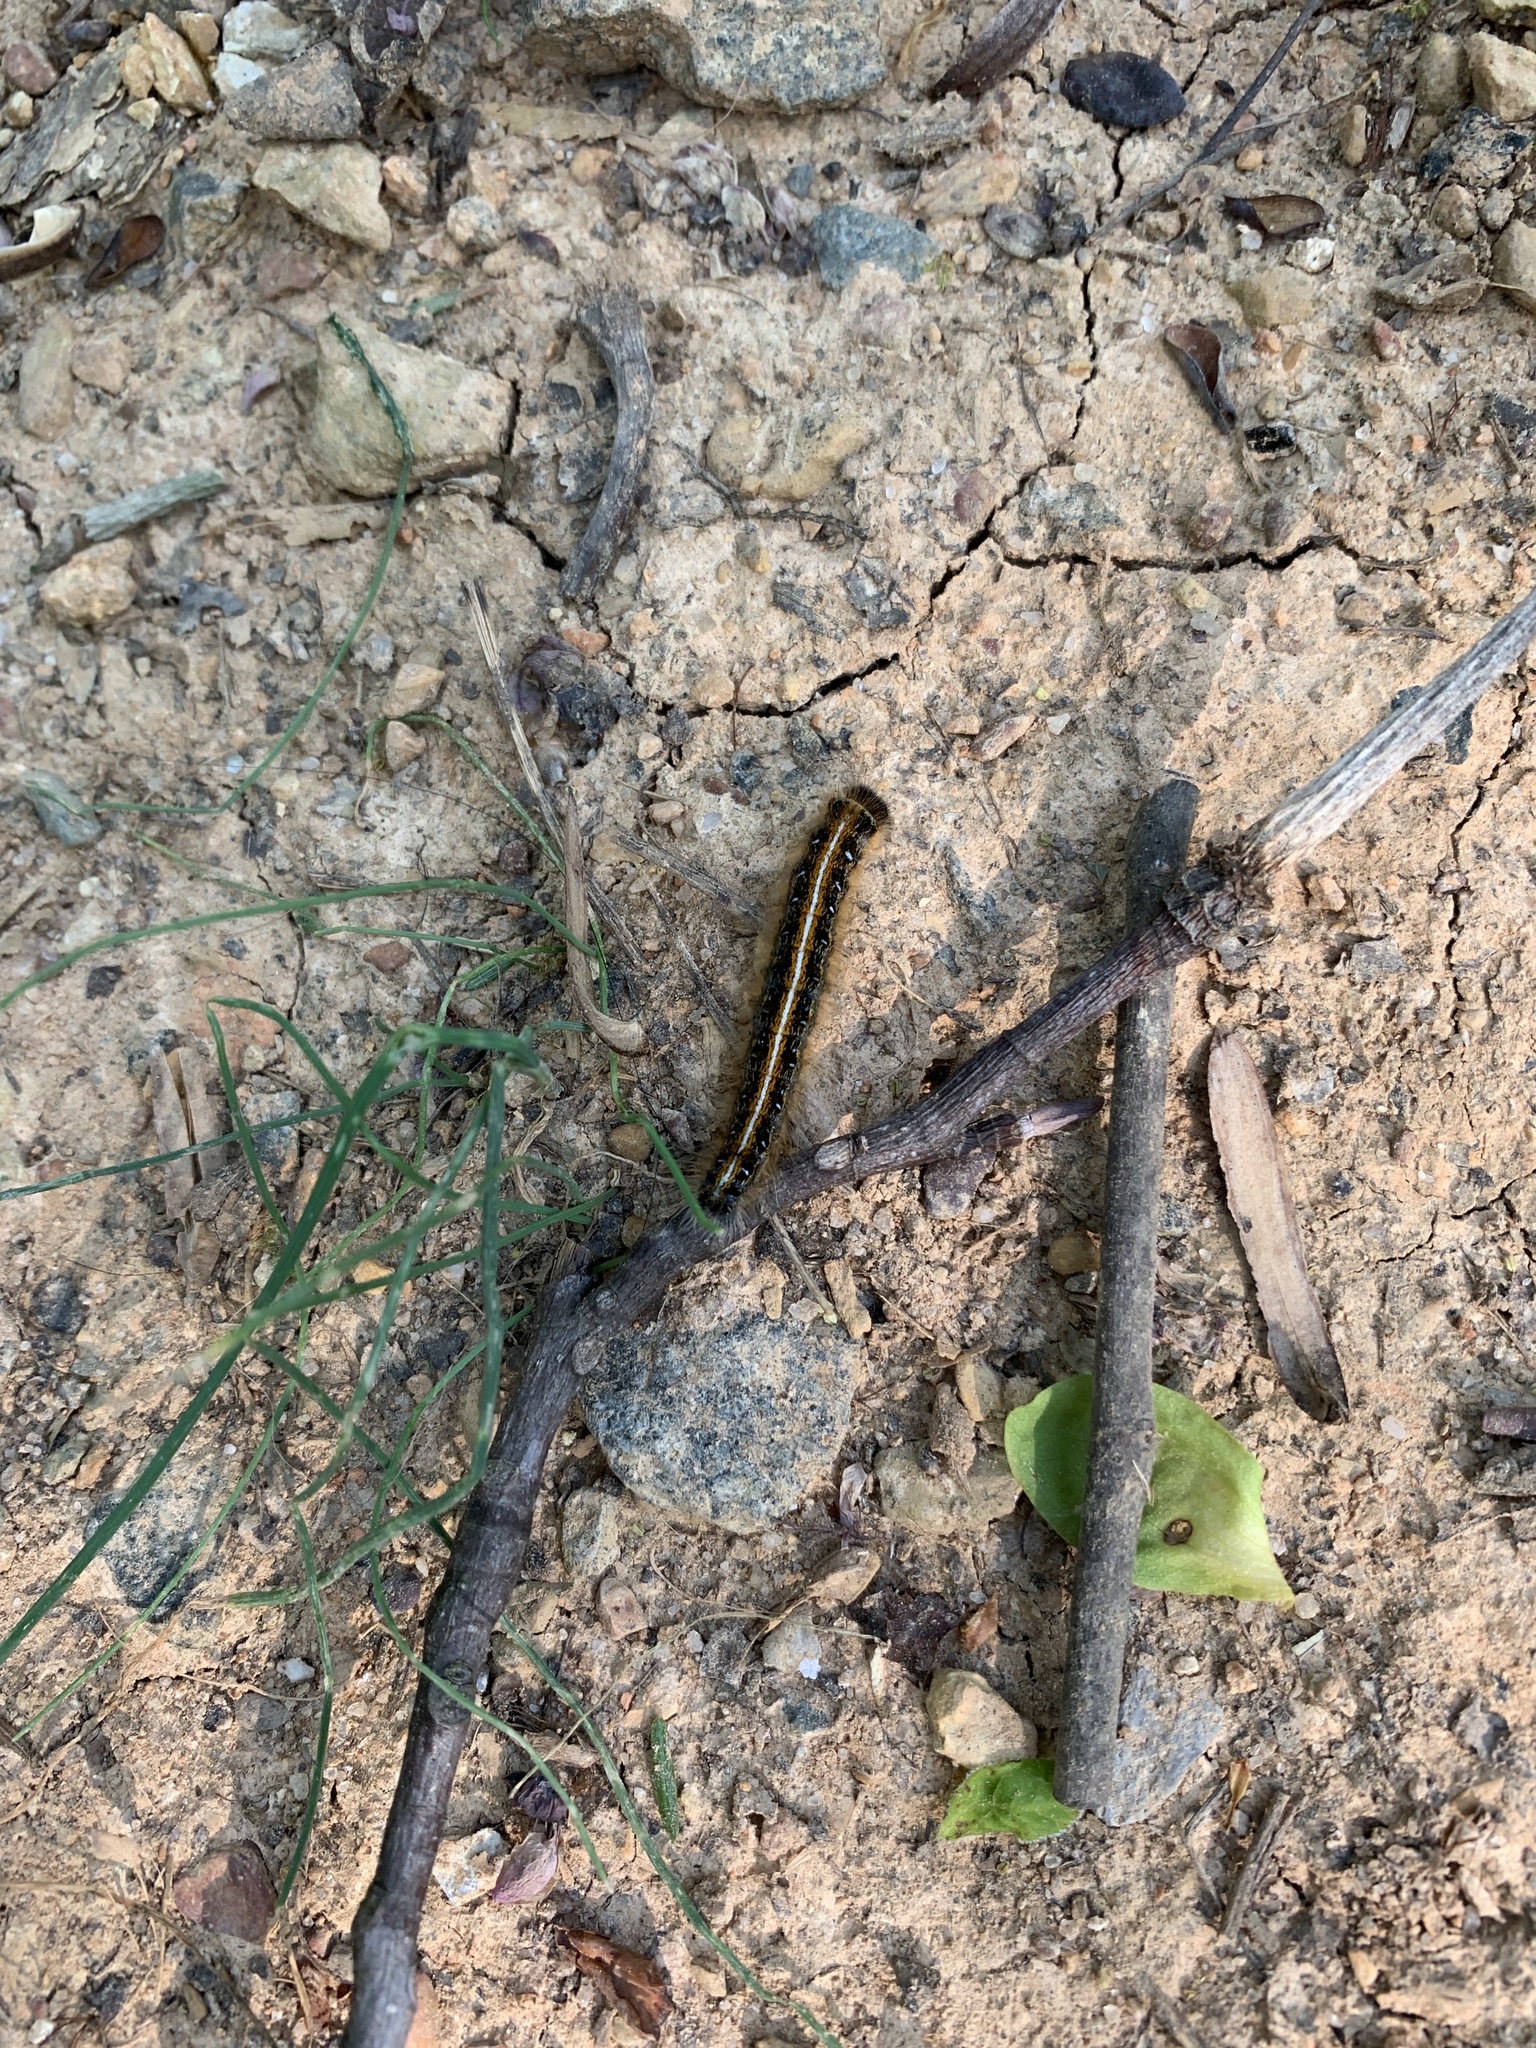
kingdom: Animalia
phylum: Arthropoda
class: Insecta
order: Lepidoptera
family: Lasiocampidae
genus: Malacosoma
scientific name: Malacosoma americana
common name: Eastern tent caterpillar moth
